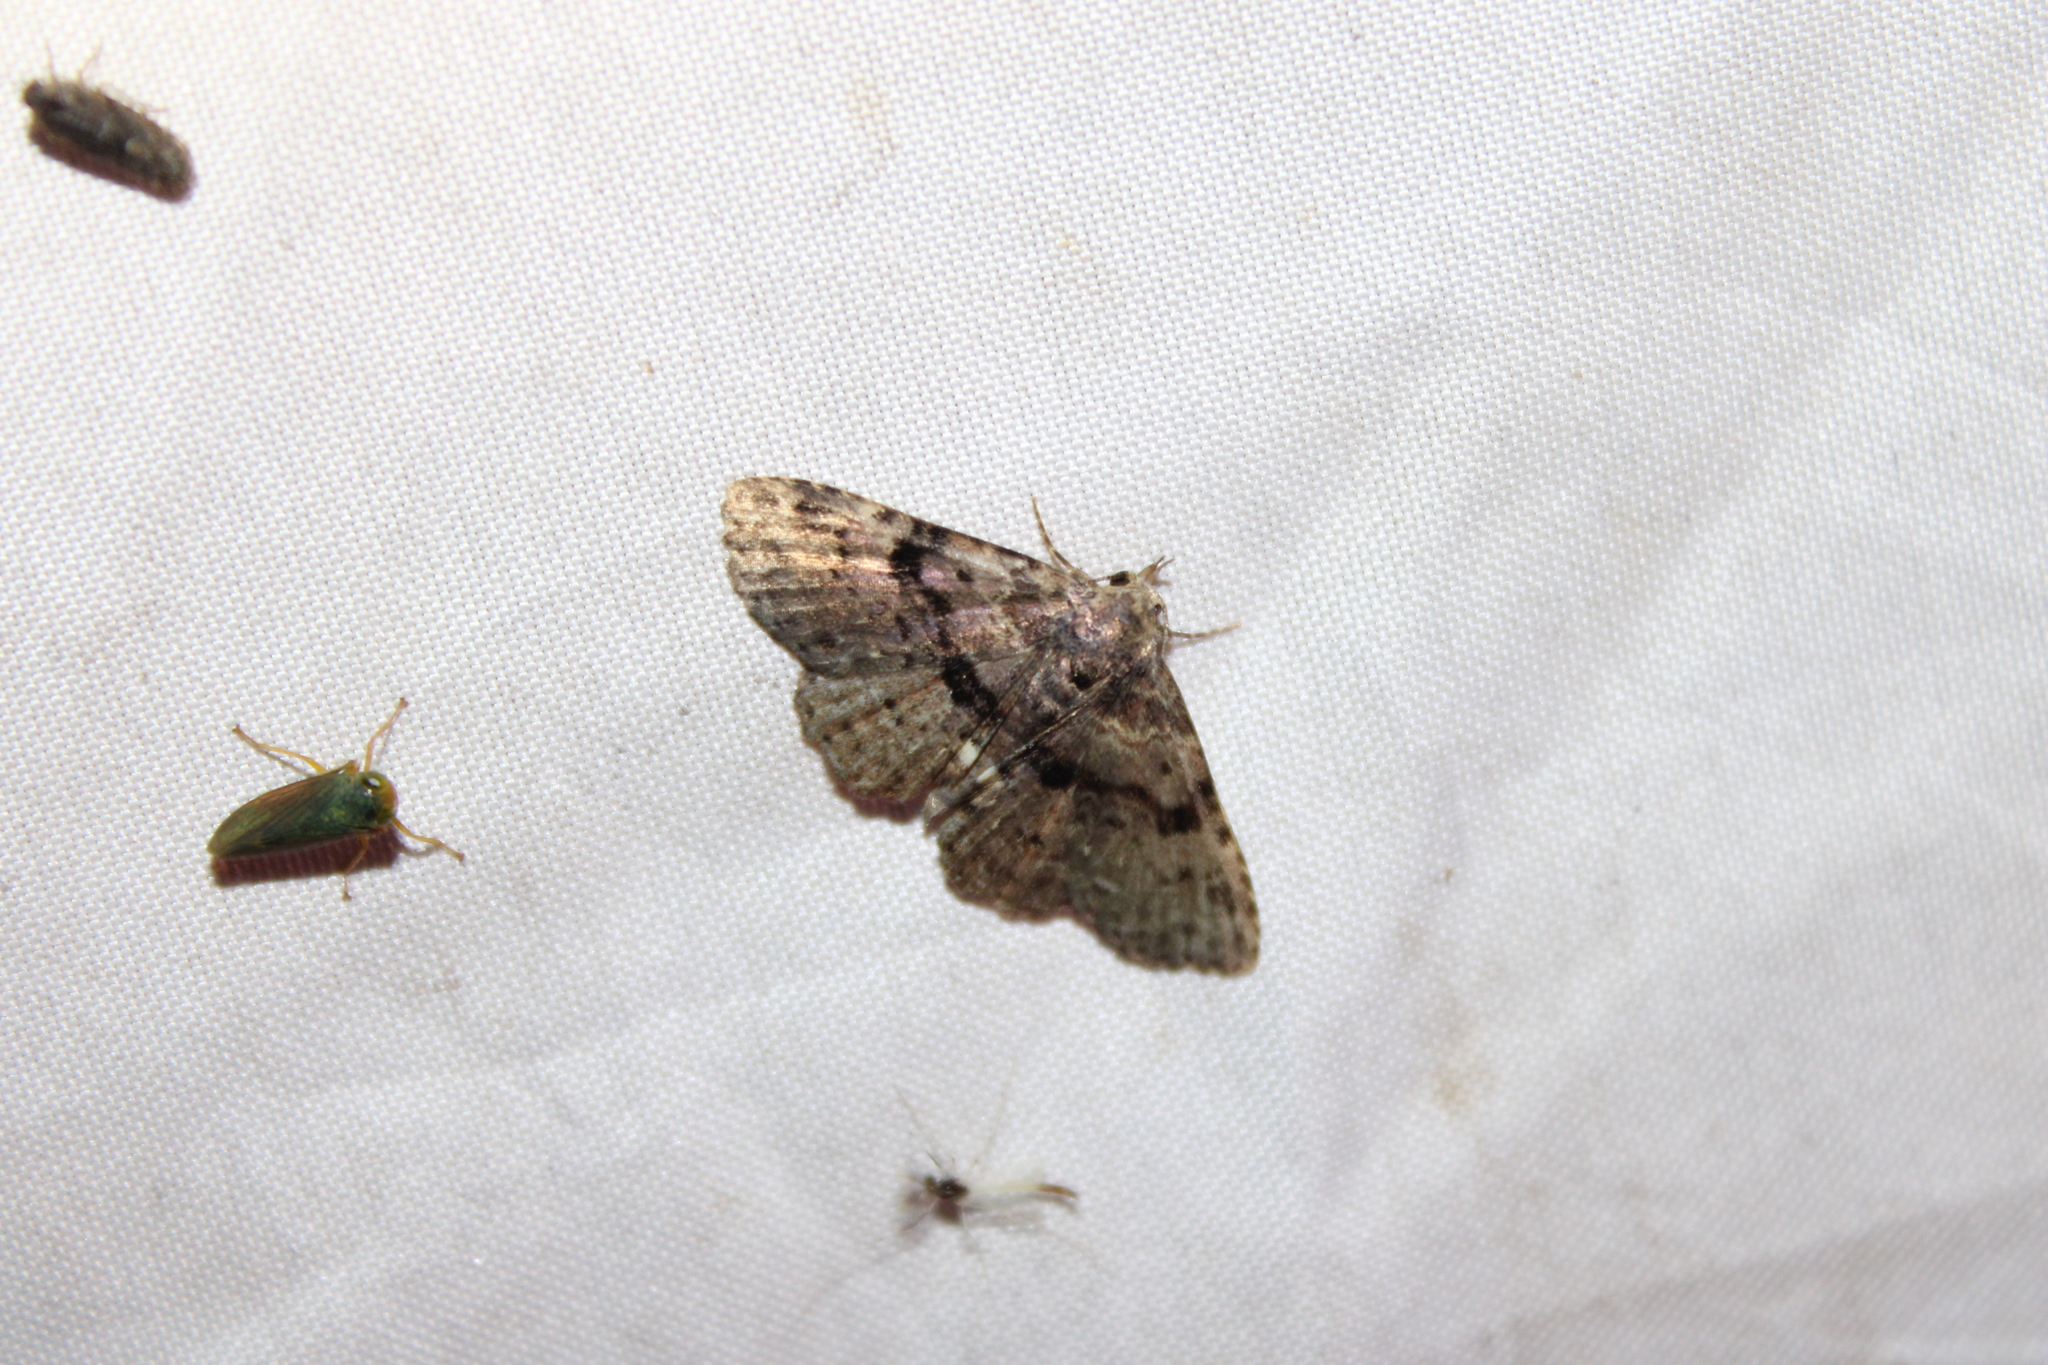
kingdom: Animalia
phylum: Arthropoda
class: Insecta
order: Lepidoptera
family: Erebidae
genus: Metalectra
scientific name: Metalectra quadrisignata
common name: Four-spotted fungus moth
